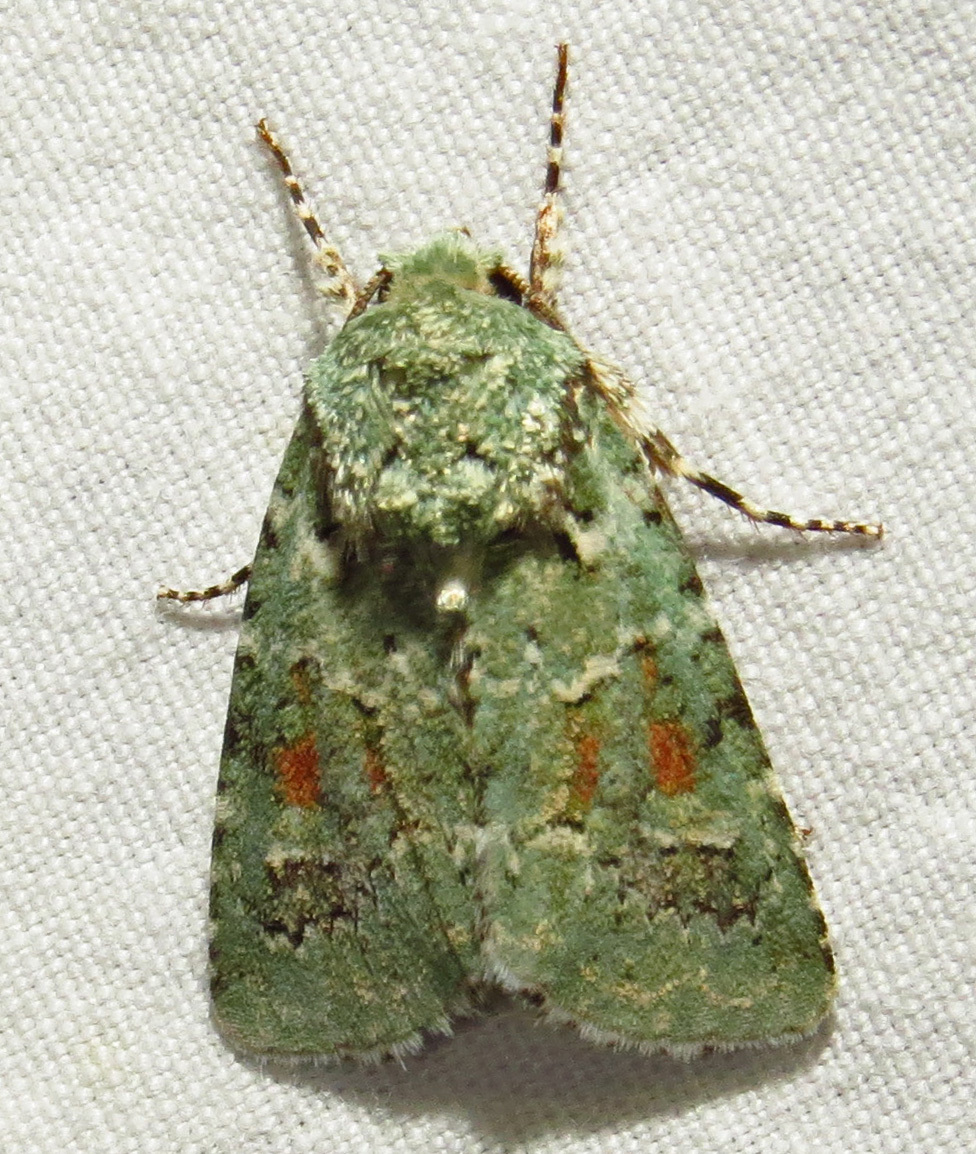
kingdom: Animalia
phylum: Arthropoda
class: Insecta
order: Lepidoptera
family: Noctuidae
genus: Lacinipolia
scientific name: Lacinipolia laudabilis
